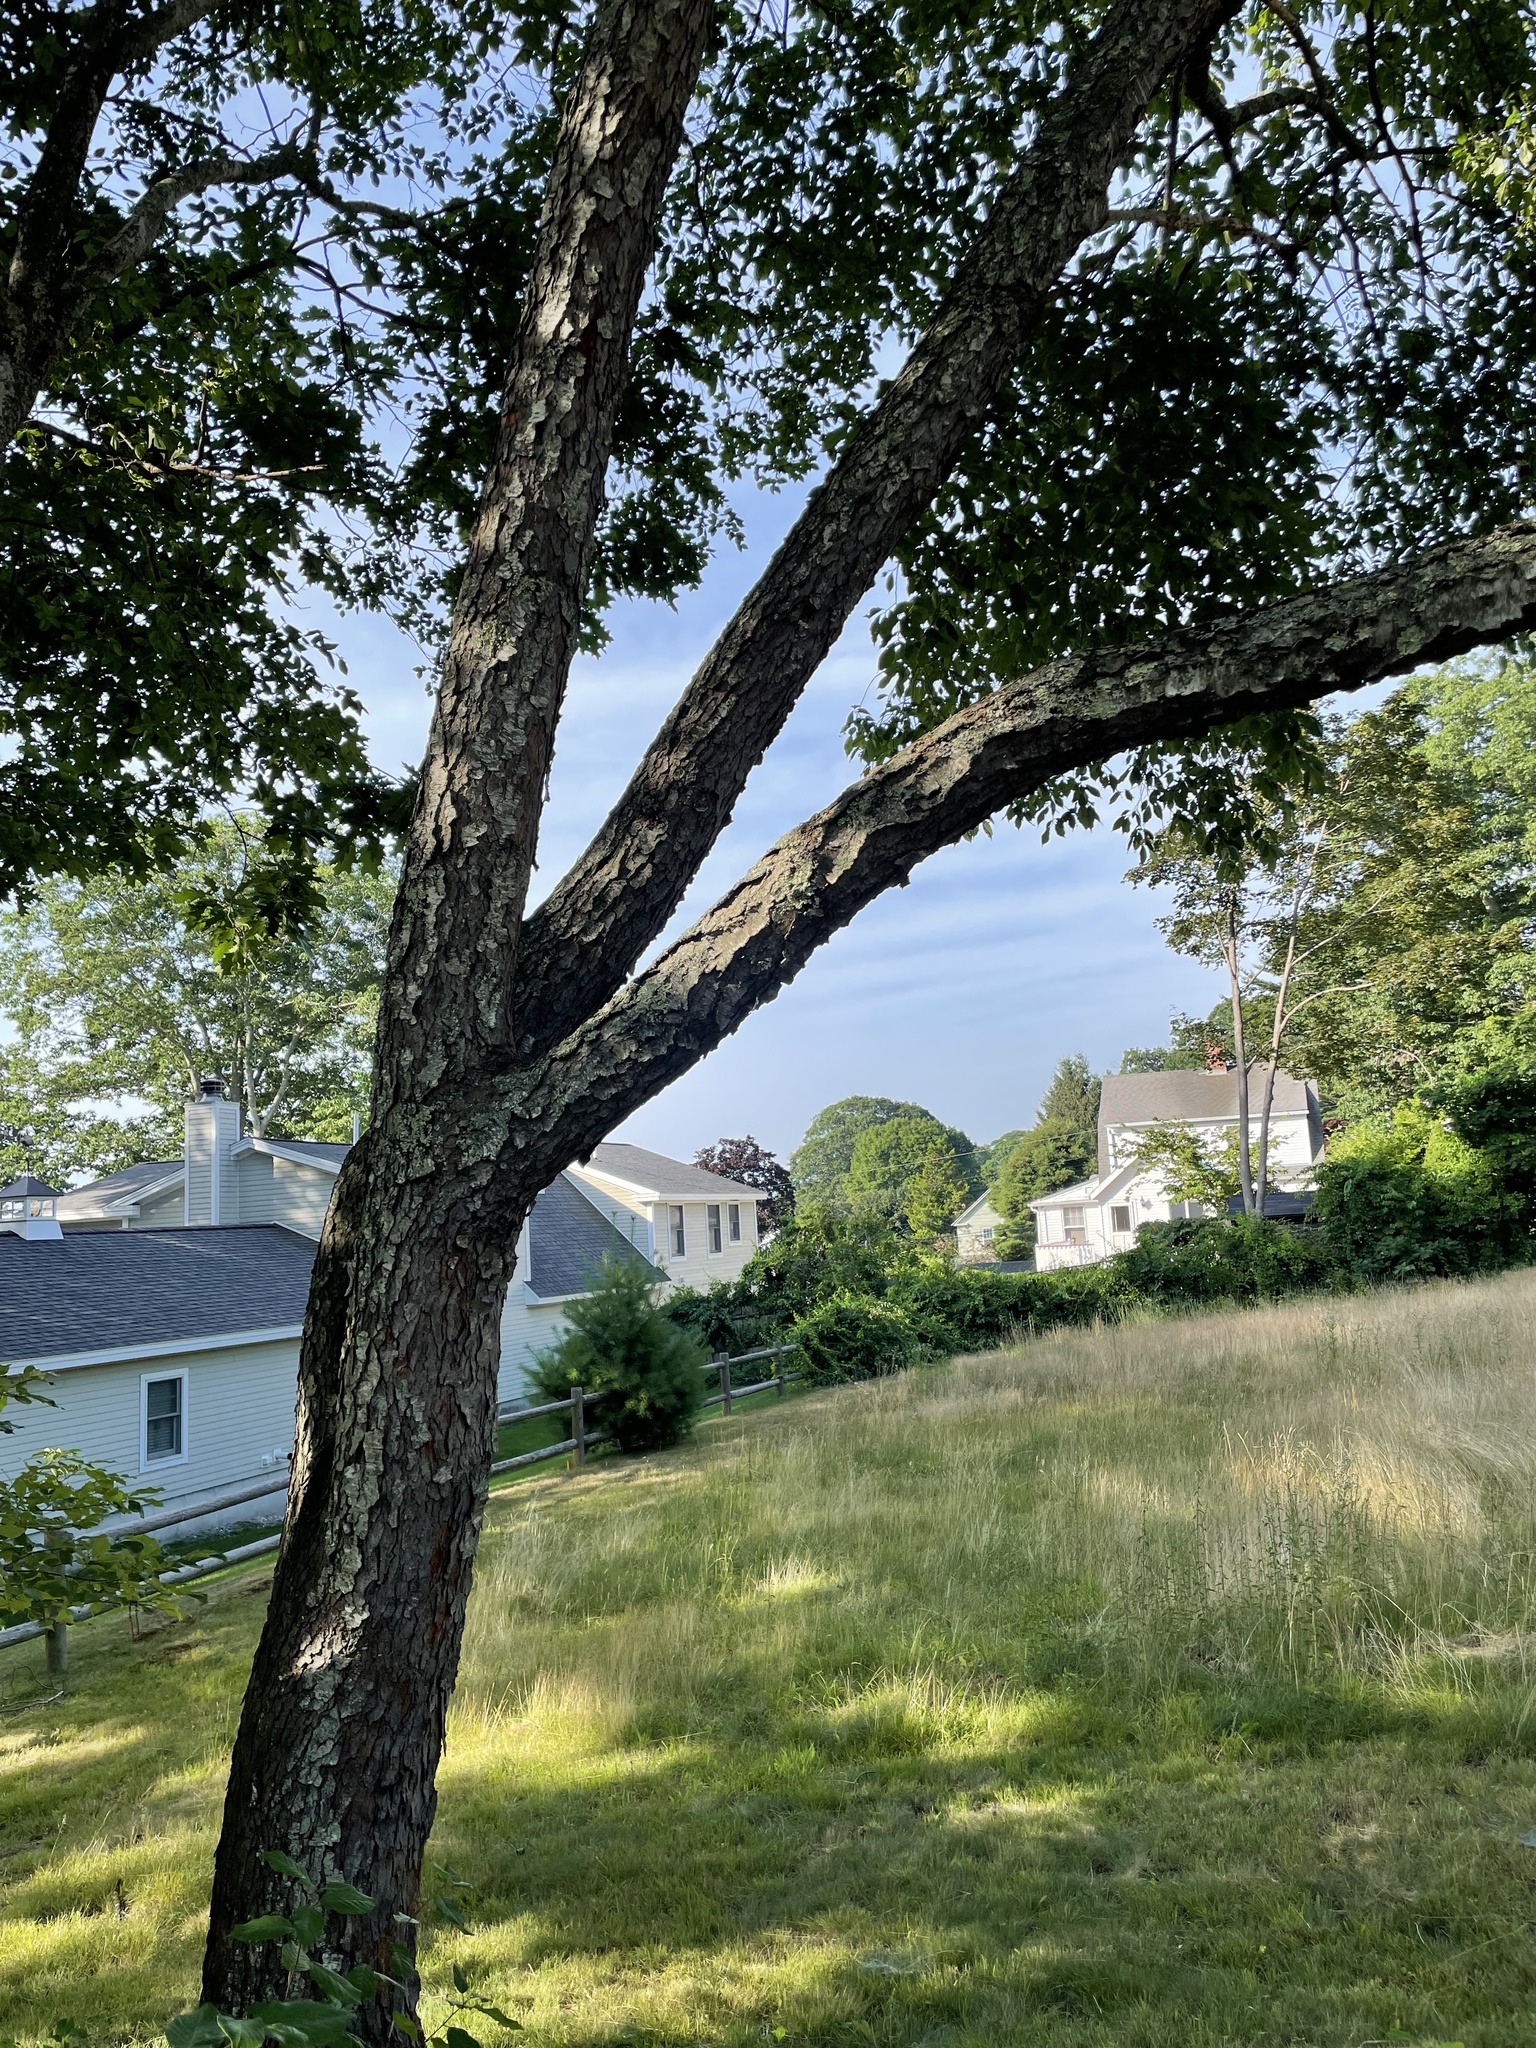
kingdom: Plantae
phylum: Tracheophyta
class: Magnoliopsida
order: Rosales
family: Rosaceae
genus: Prunus
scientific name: Prunus serotina
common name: Black cherry
